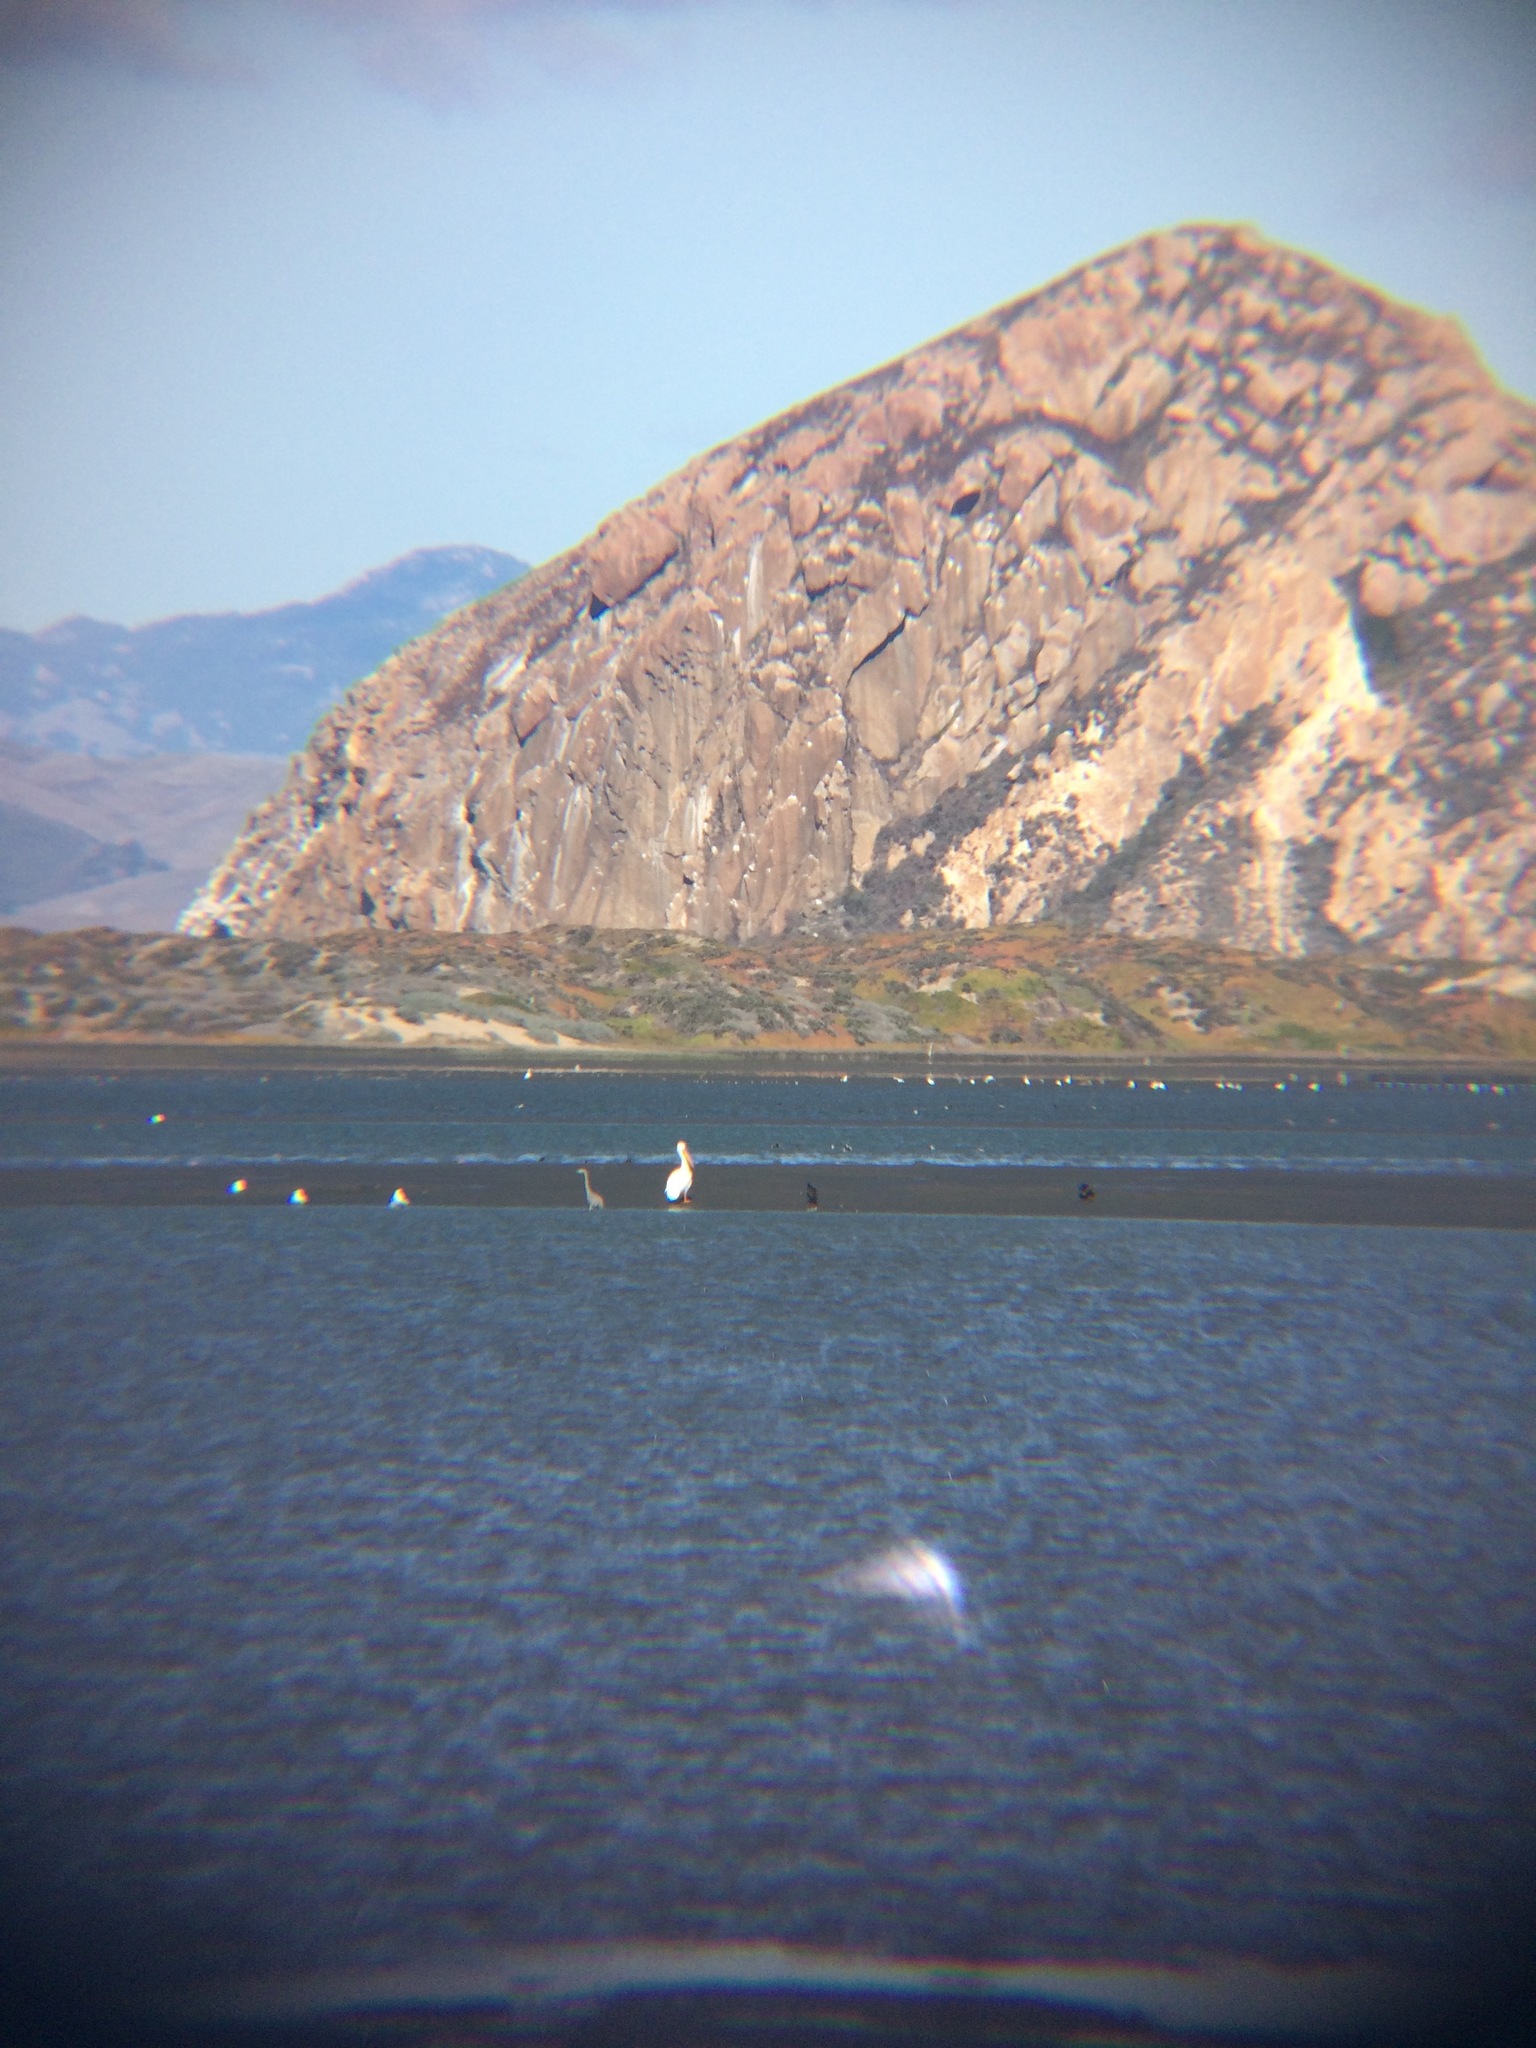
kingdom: Animalia
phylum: Chordata
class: Aves
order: Pelecaniformes
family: Pelecanidae
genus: Pelecanus
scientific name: Pelecanus erythrorhynchos
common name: American white pelican
